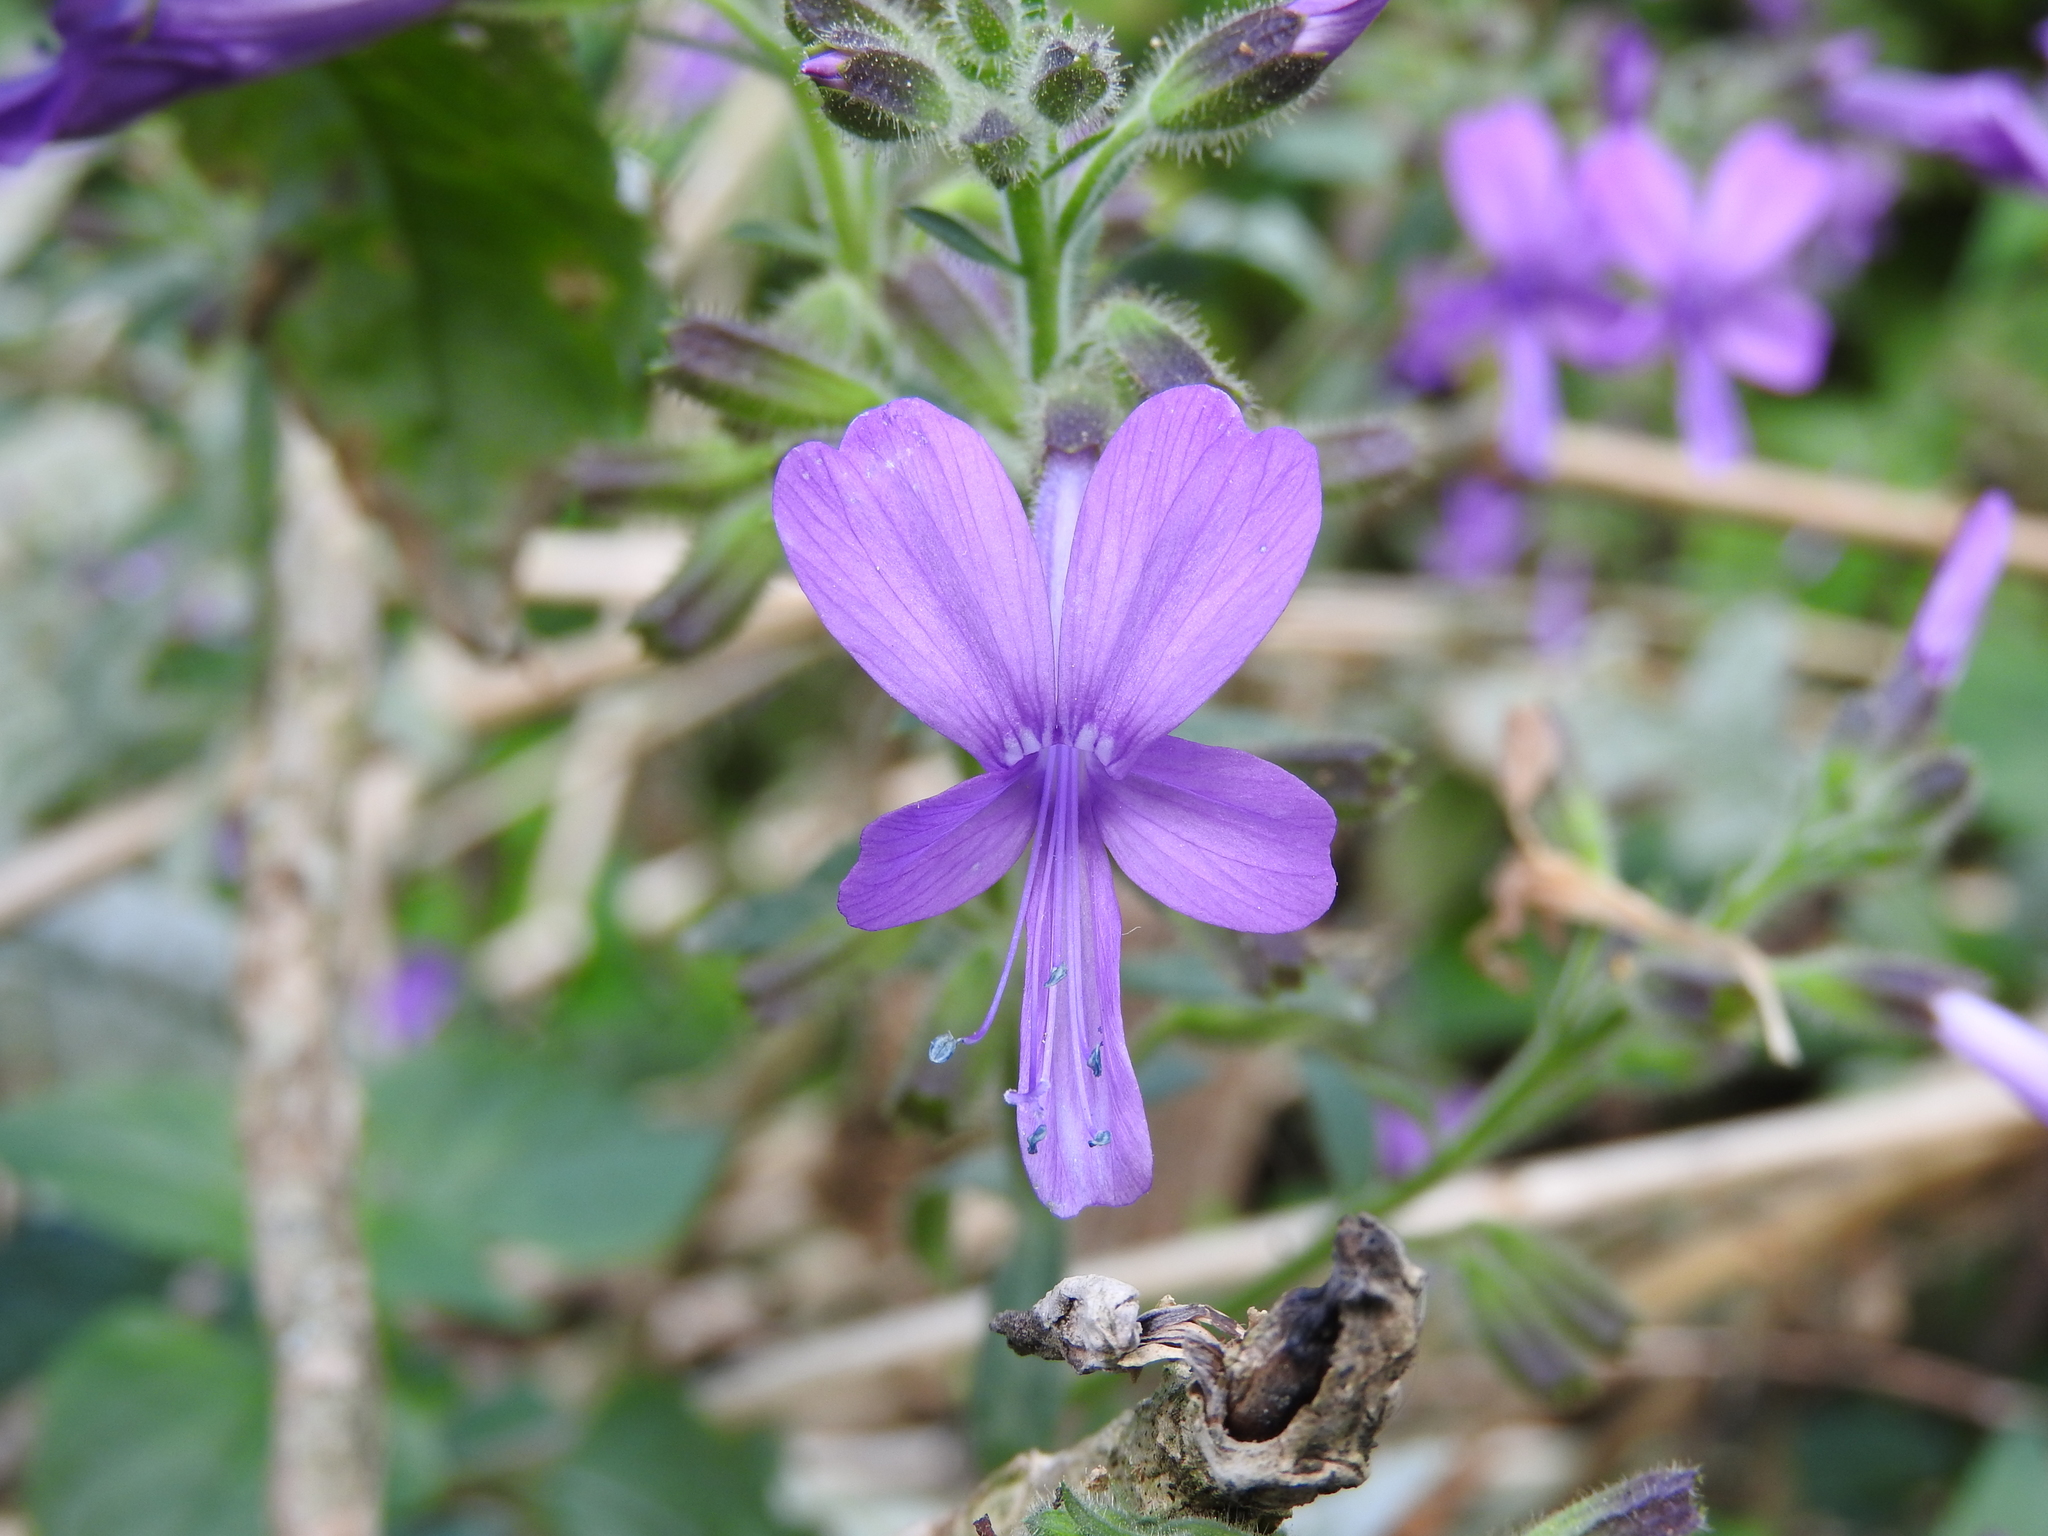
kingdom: Plantae
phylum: Tracheophyta
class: Magnoliopsida
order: Ericales
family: Polemoniaceae
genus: Bonplandia
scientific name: Bonplandia geminiflora
